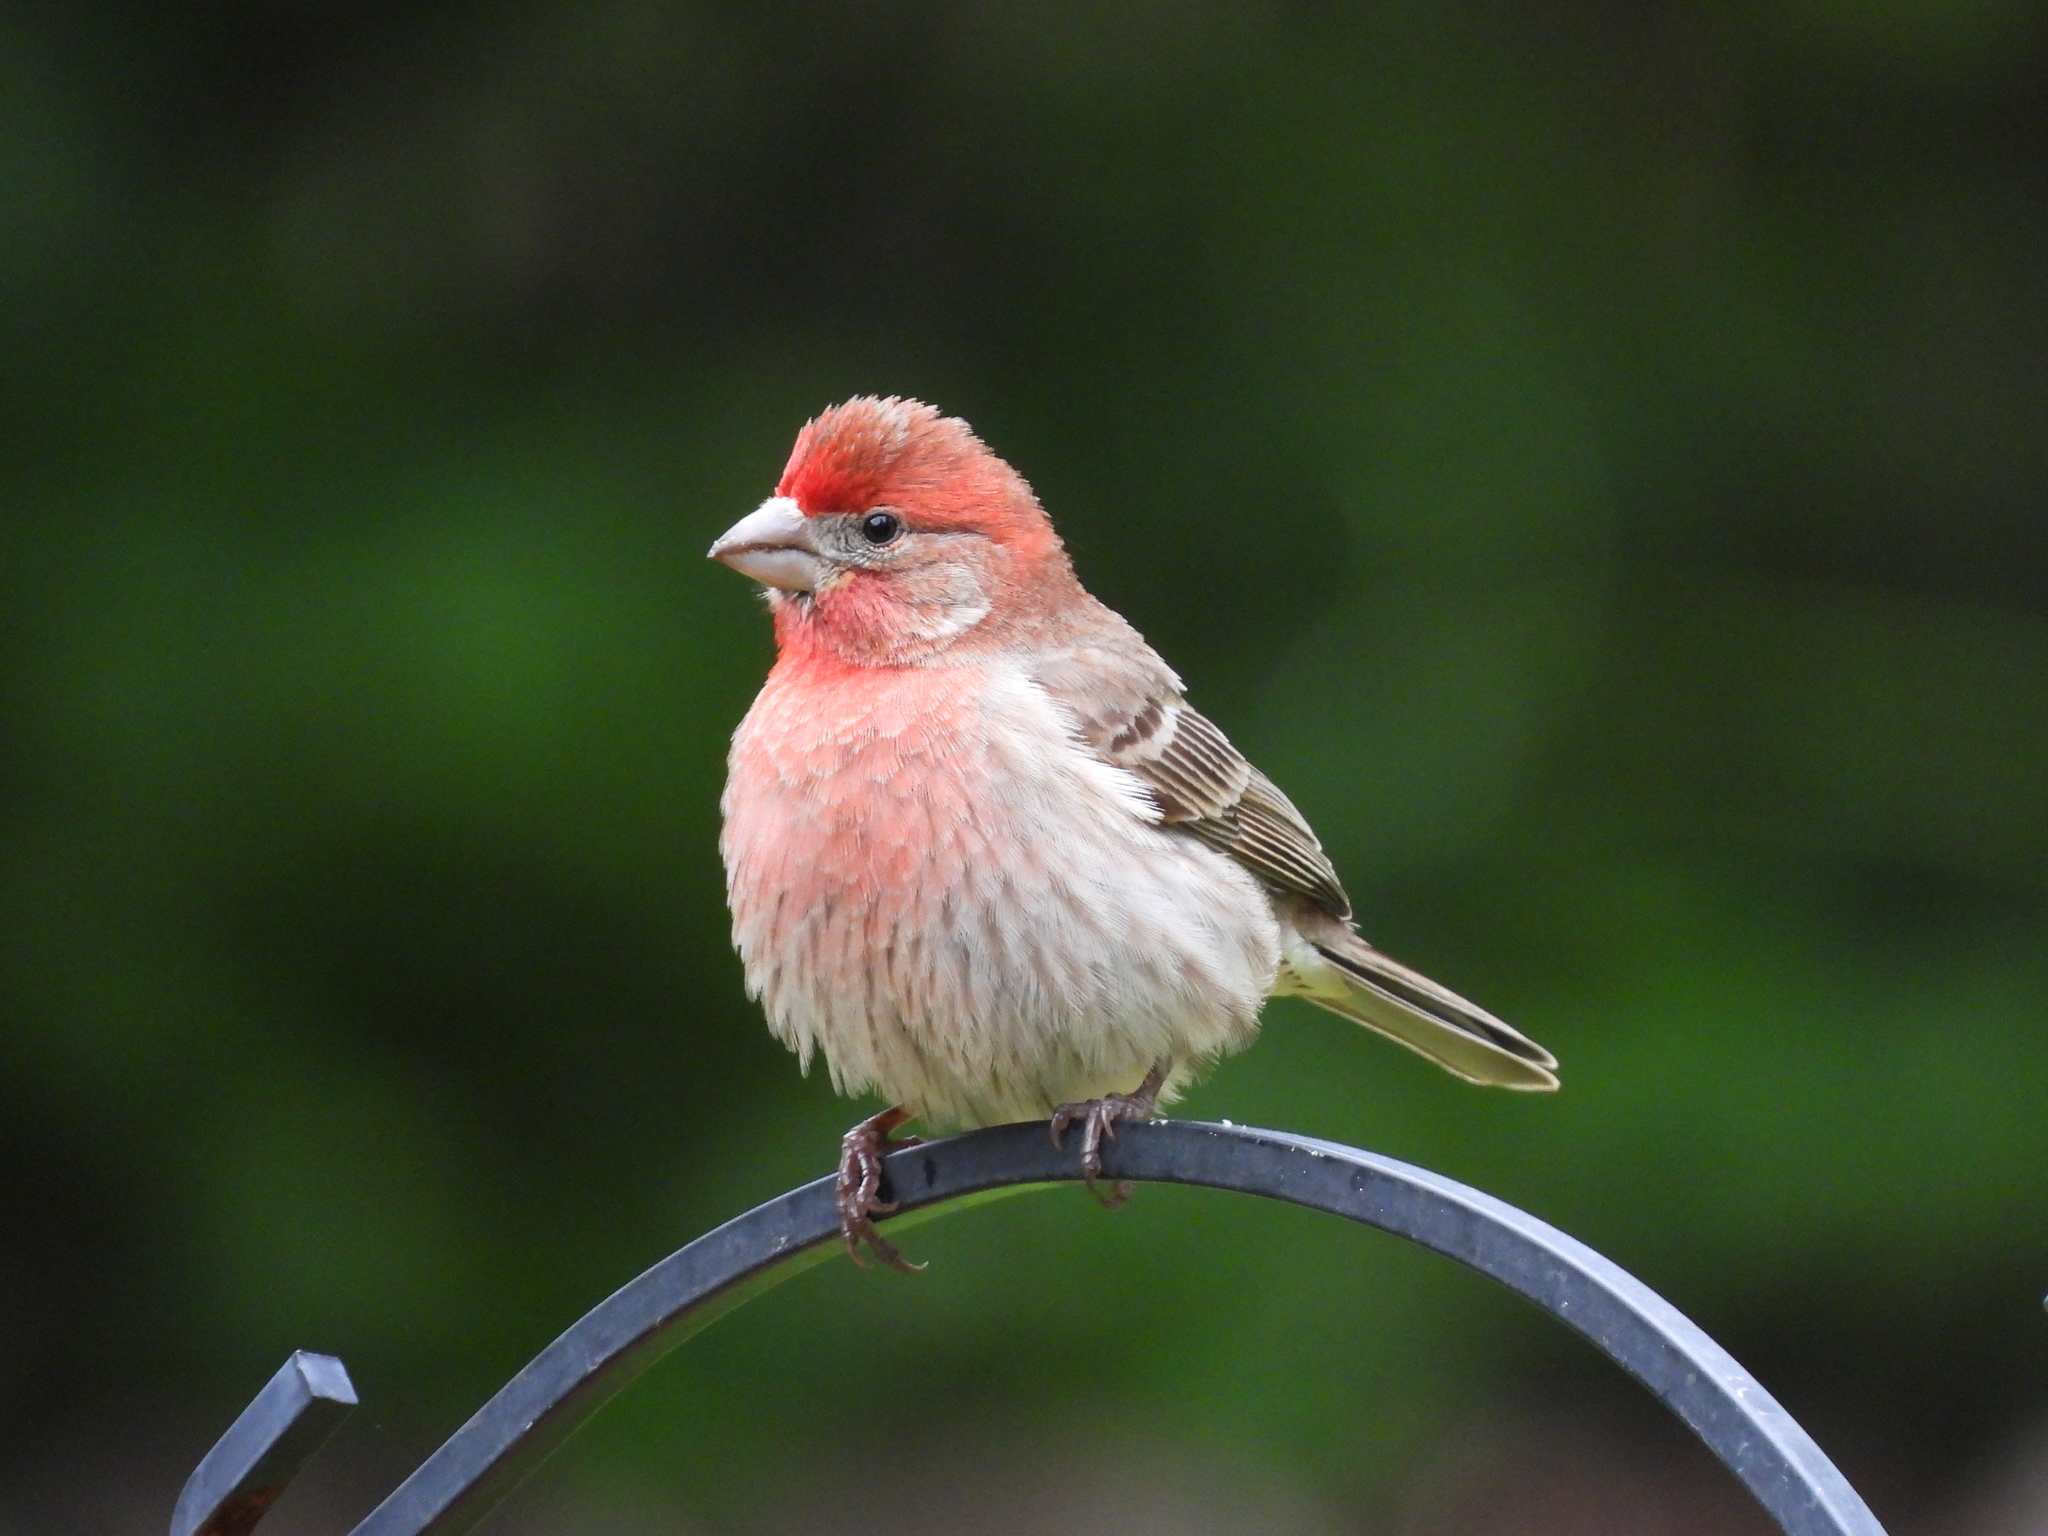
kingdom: Animalia
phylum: Chordata
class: Aves
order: Passeriformes
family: Fringillidae
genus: Haemorhous
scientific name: Haemorhous mexicanus
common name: House finch
